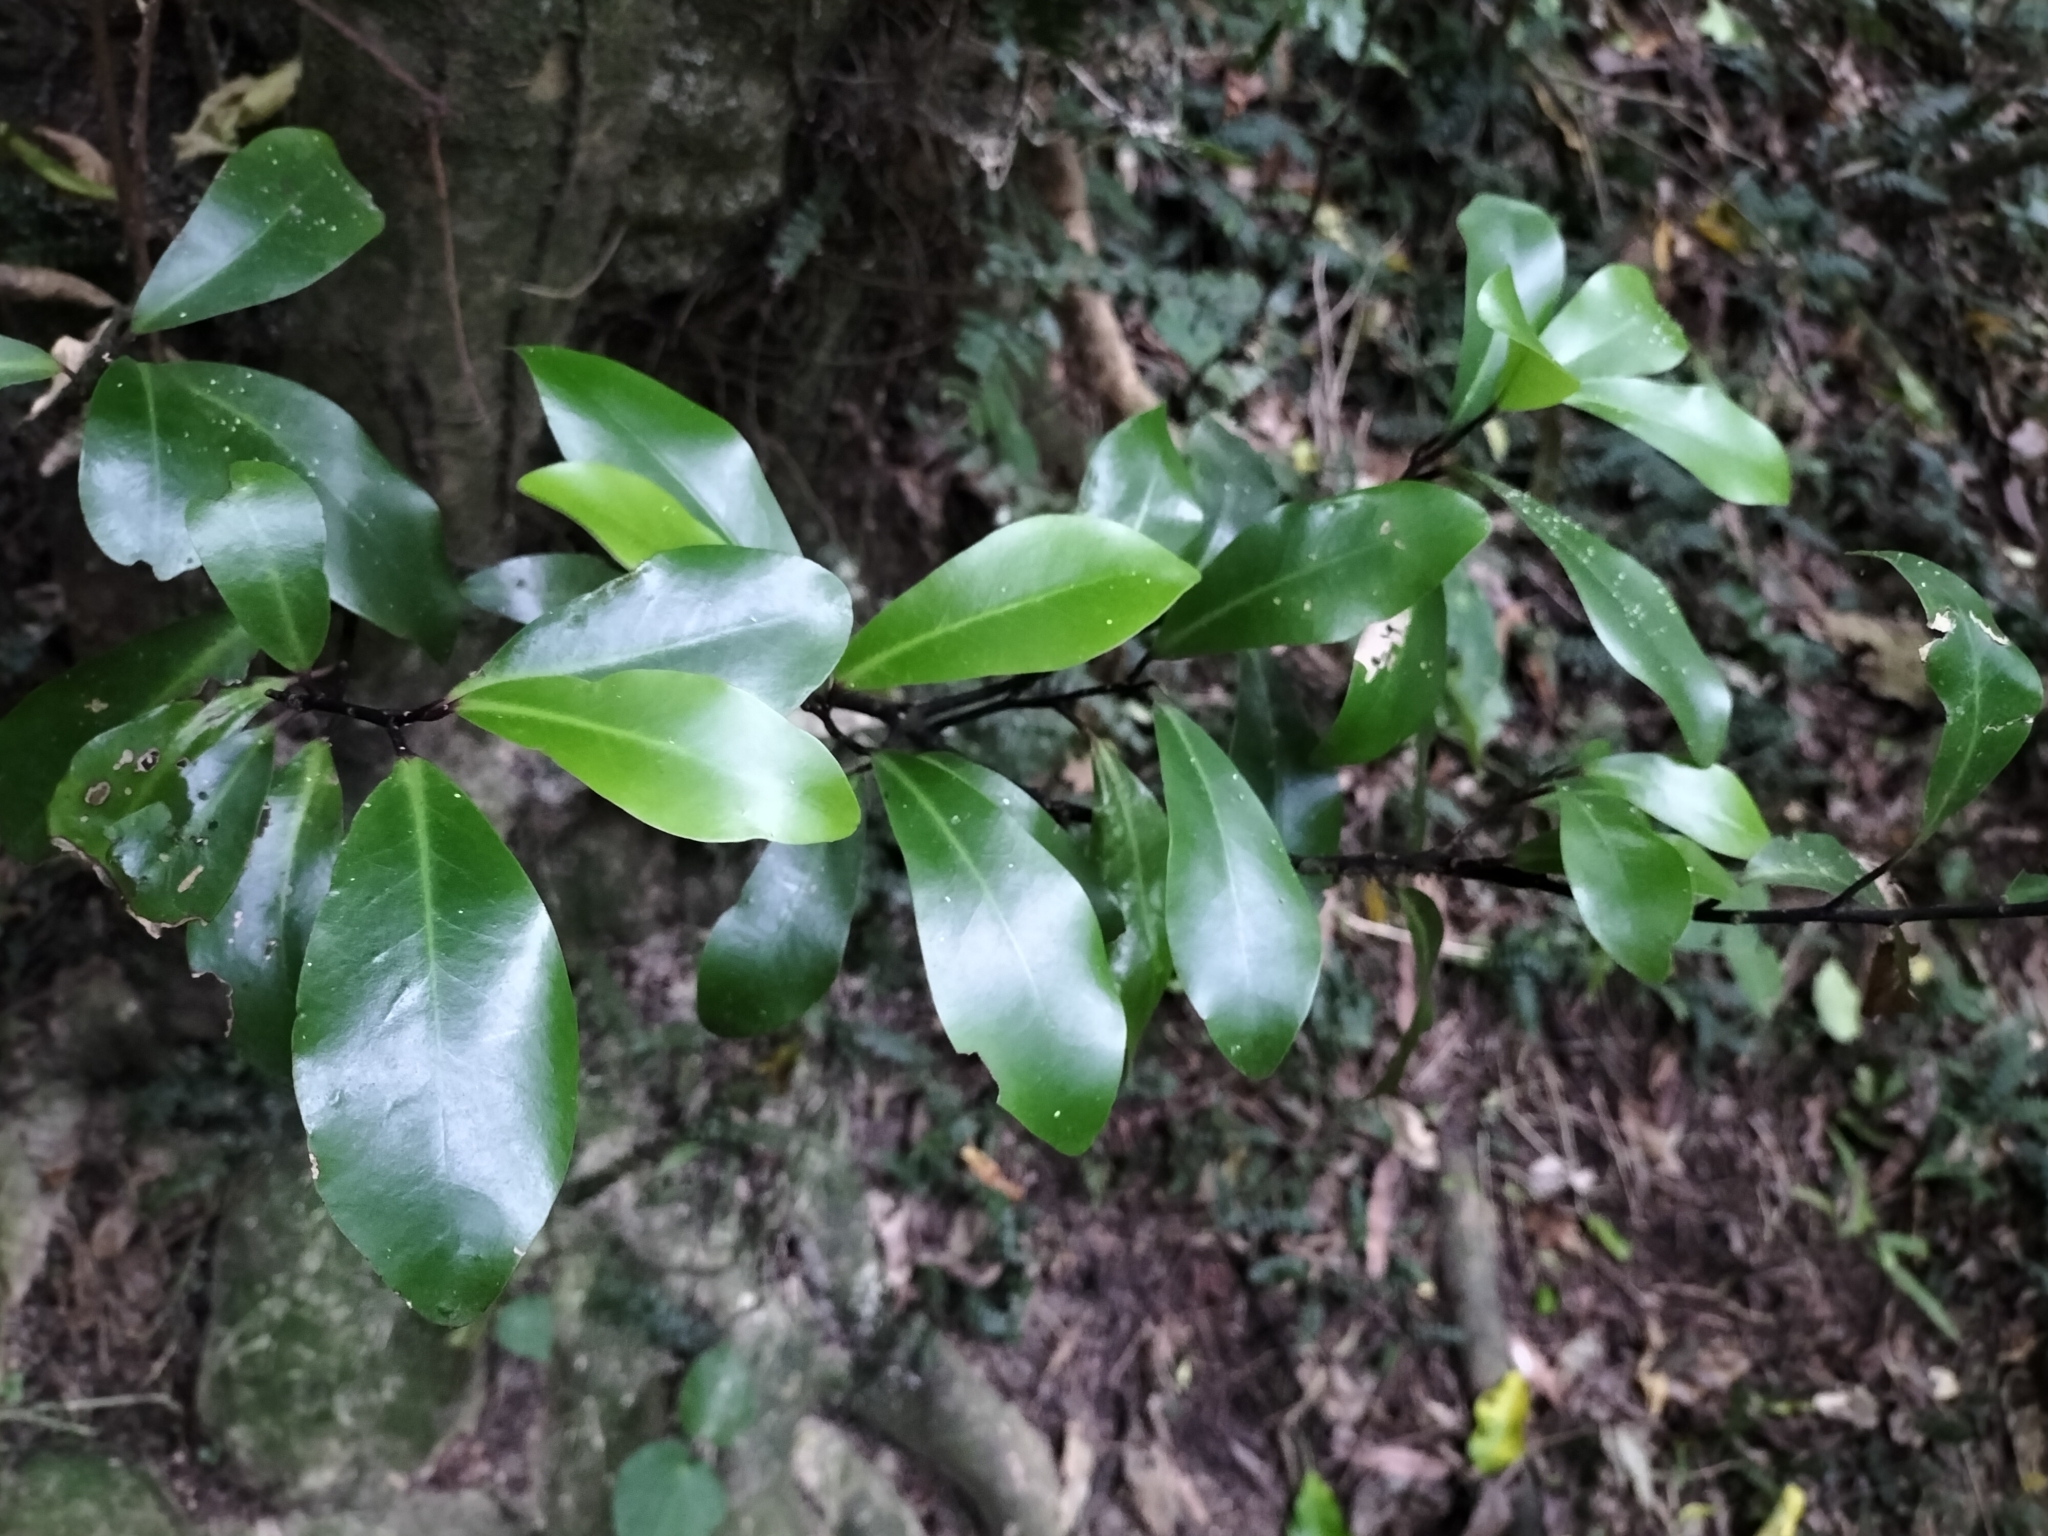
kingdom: Plantae
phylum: Tracheophyta
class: Magnoliopsida
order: Canellales
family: Winteraceae
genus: Pseudowintera
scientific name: Pseudowintera axillaris
